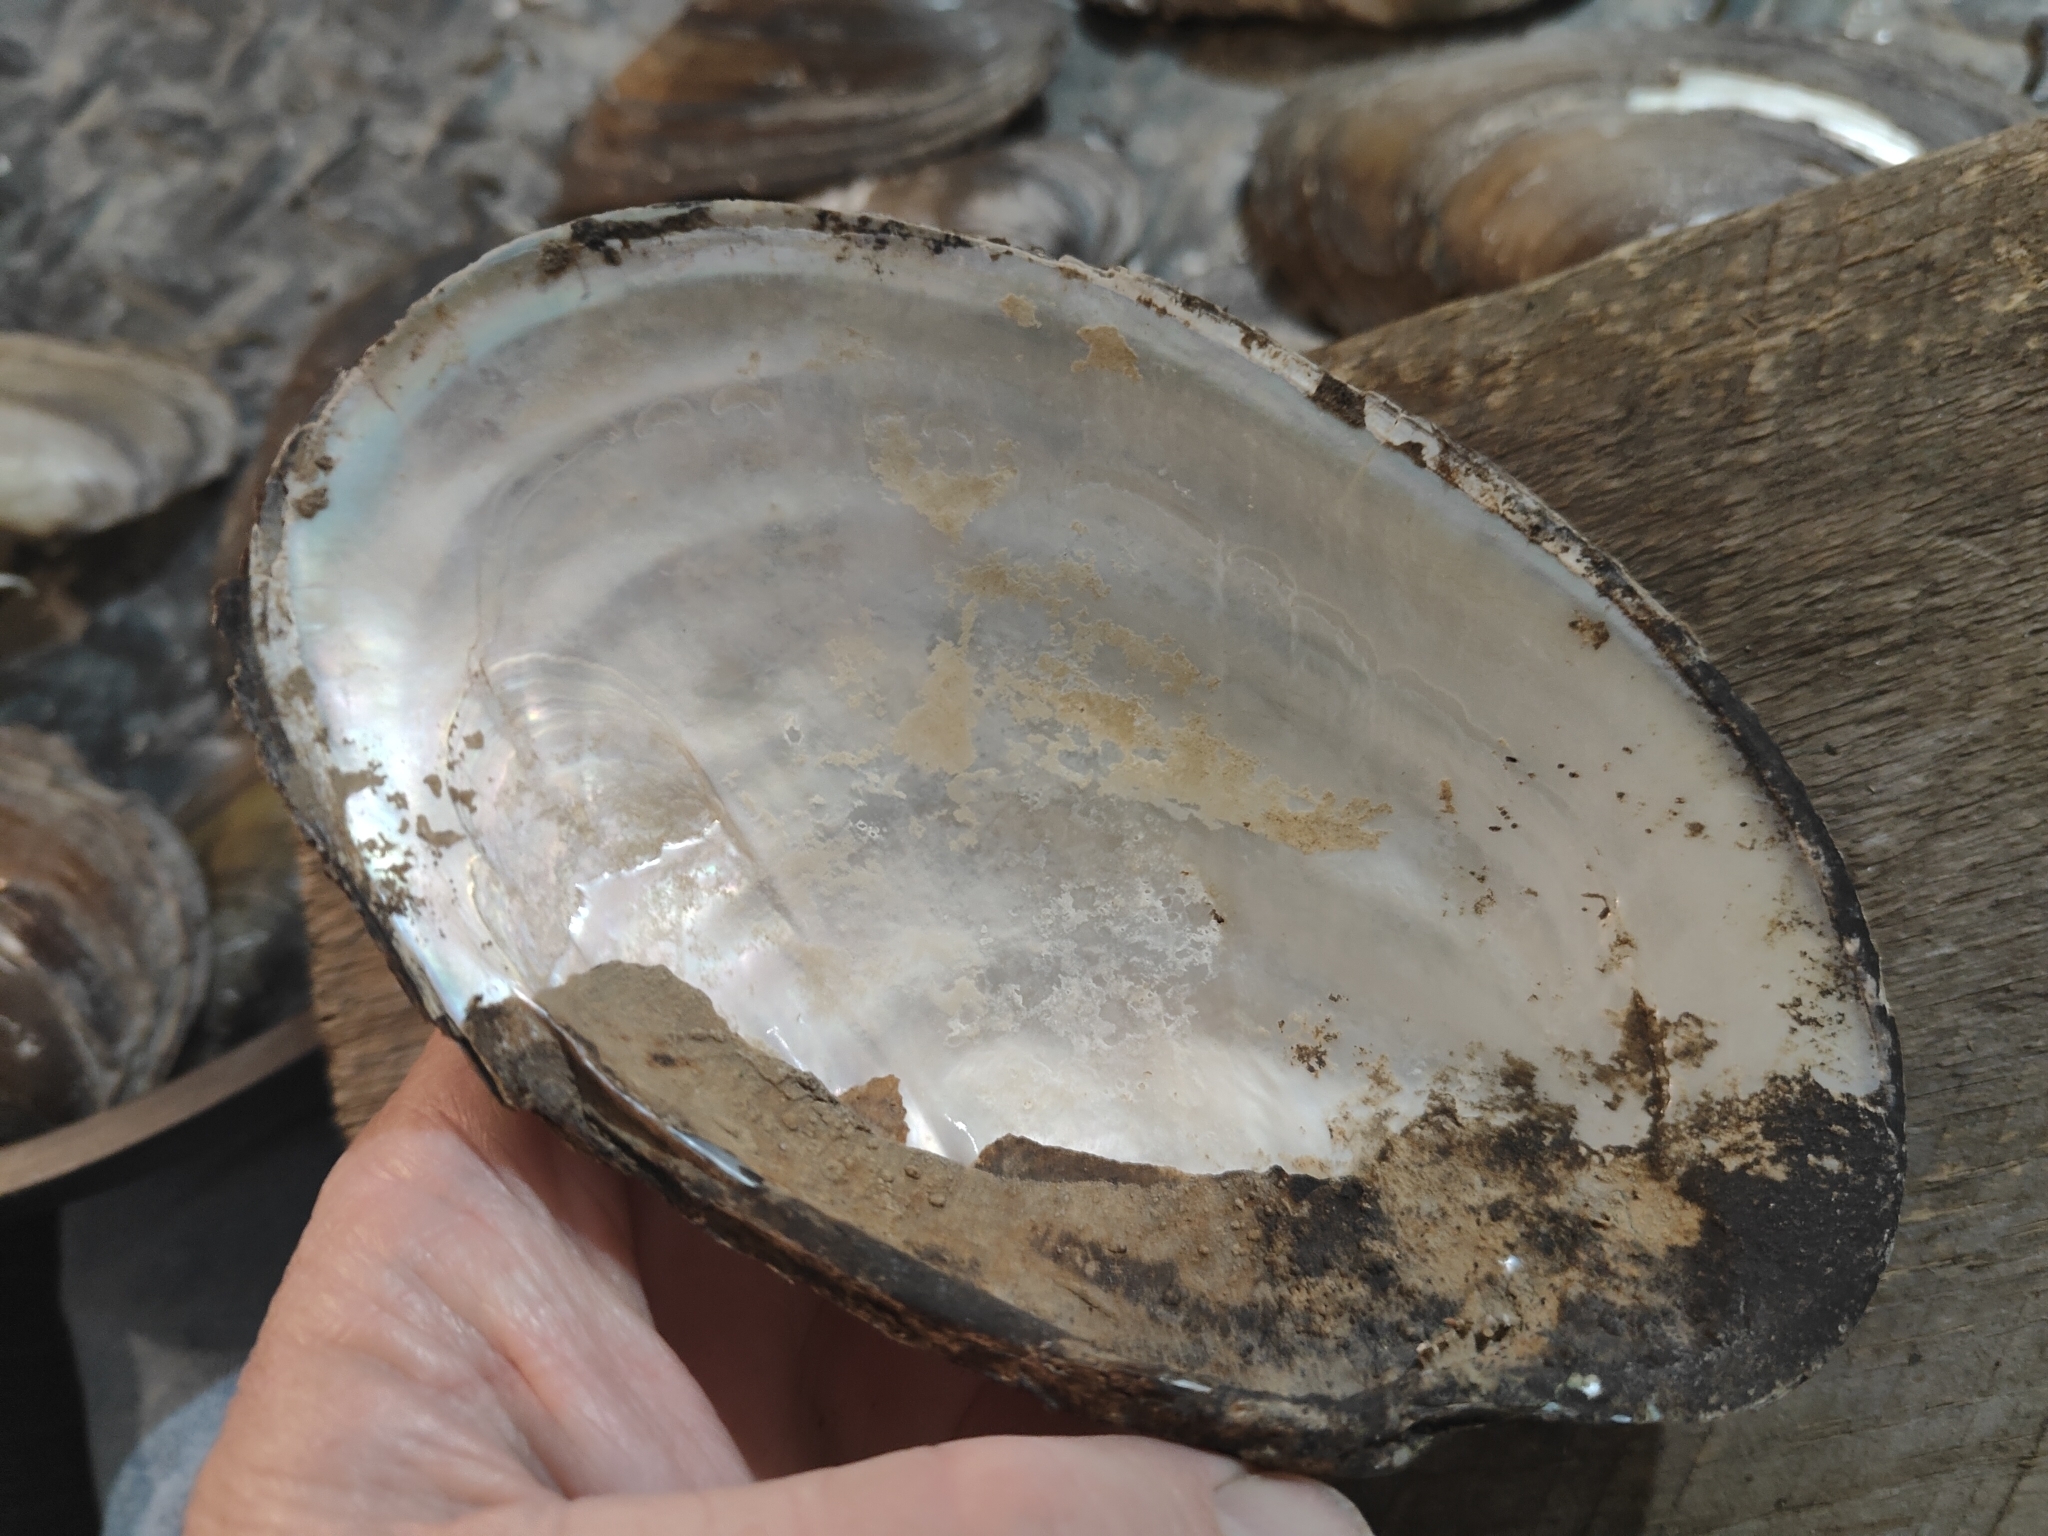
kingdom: Animalia
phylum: Mollusca
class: Bivalvia
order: Unionida
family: Unionidae
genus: Potamilus
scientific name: Potamilus fragilis
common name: Fragile papershell
